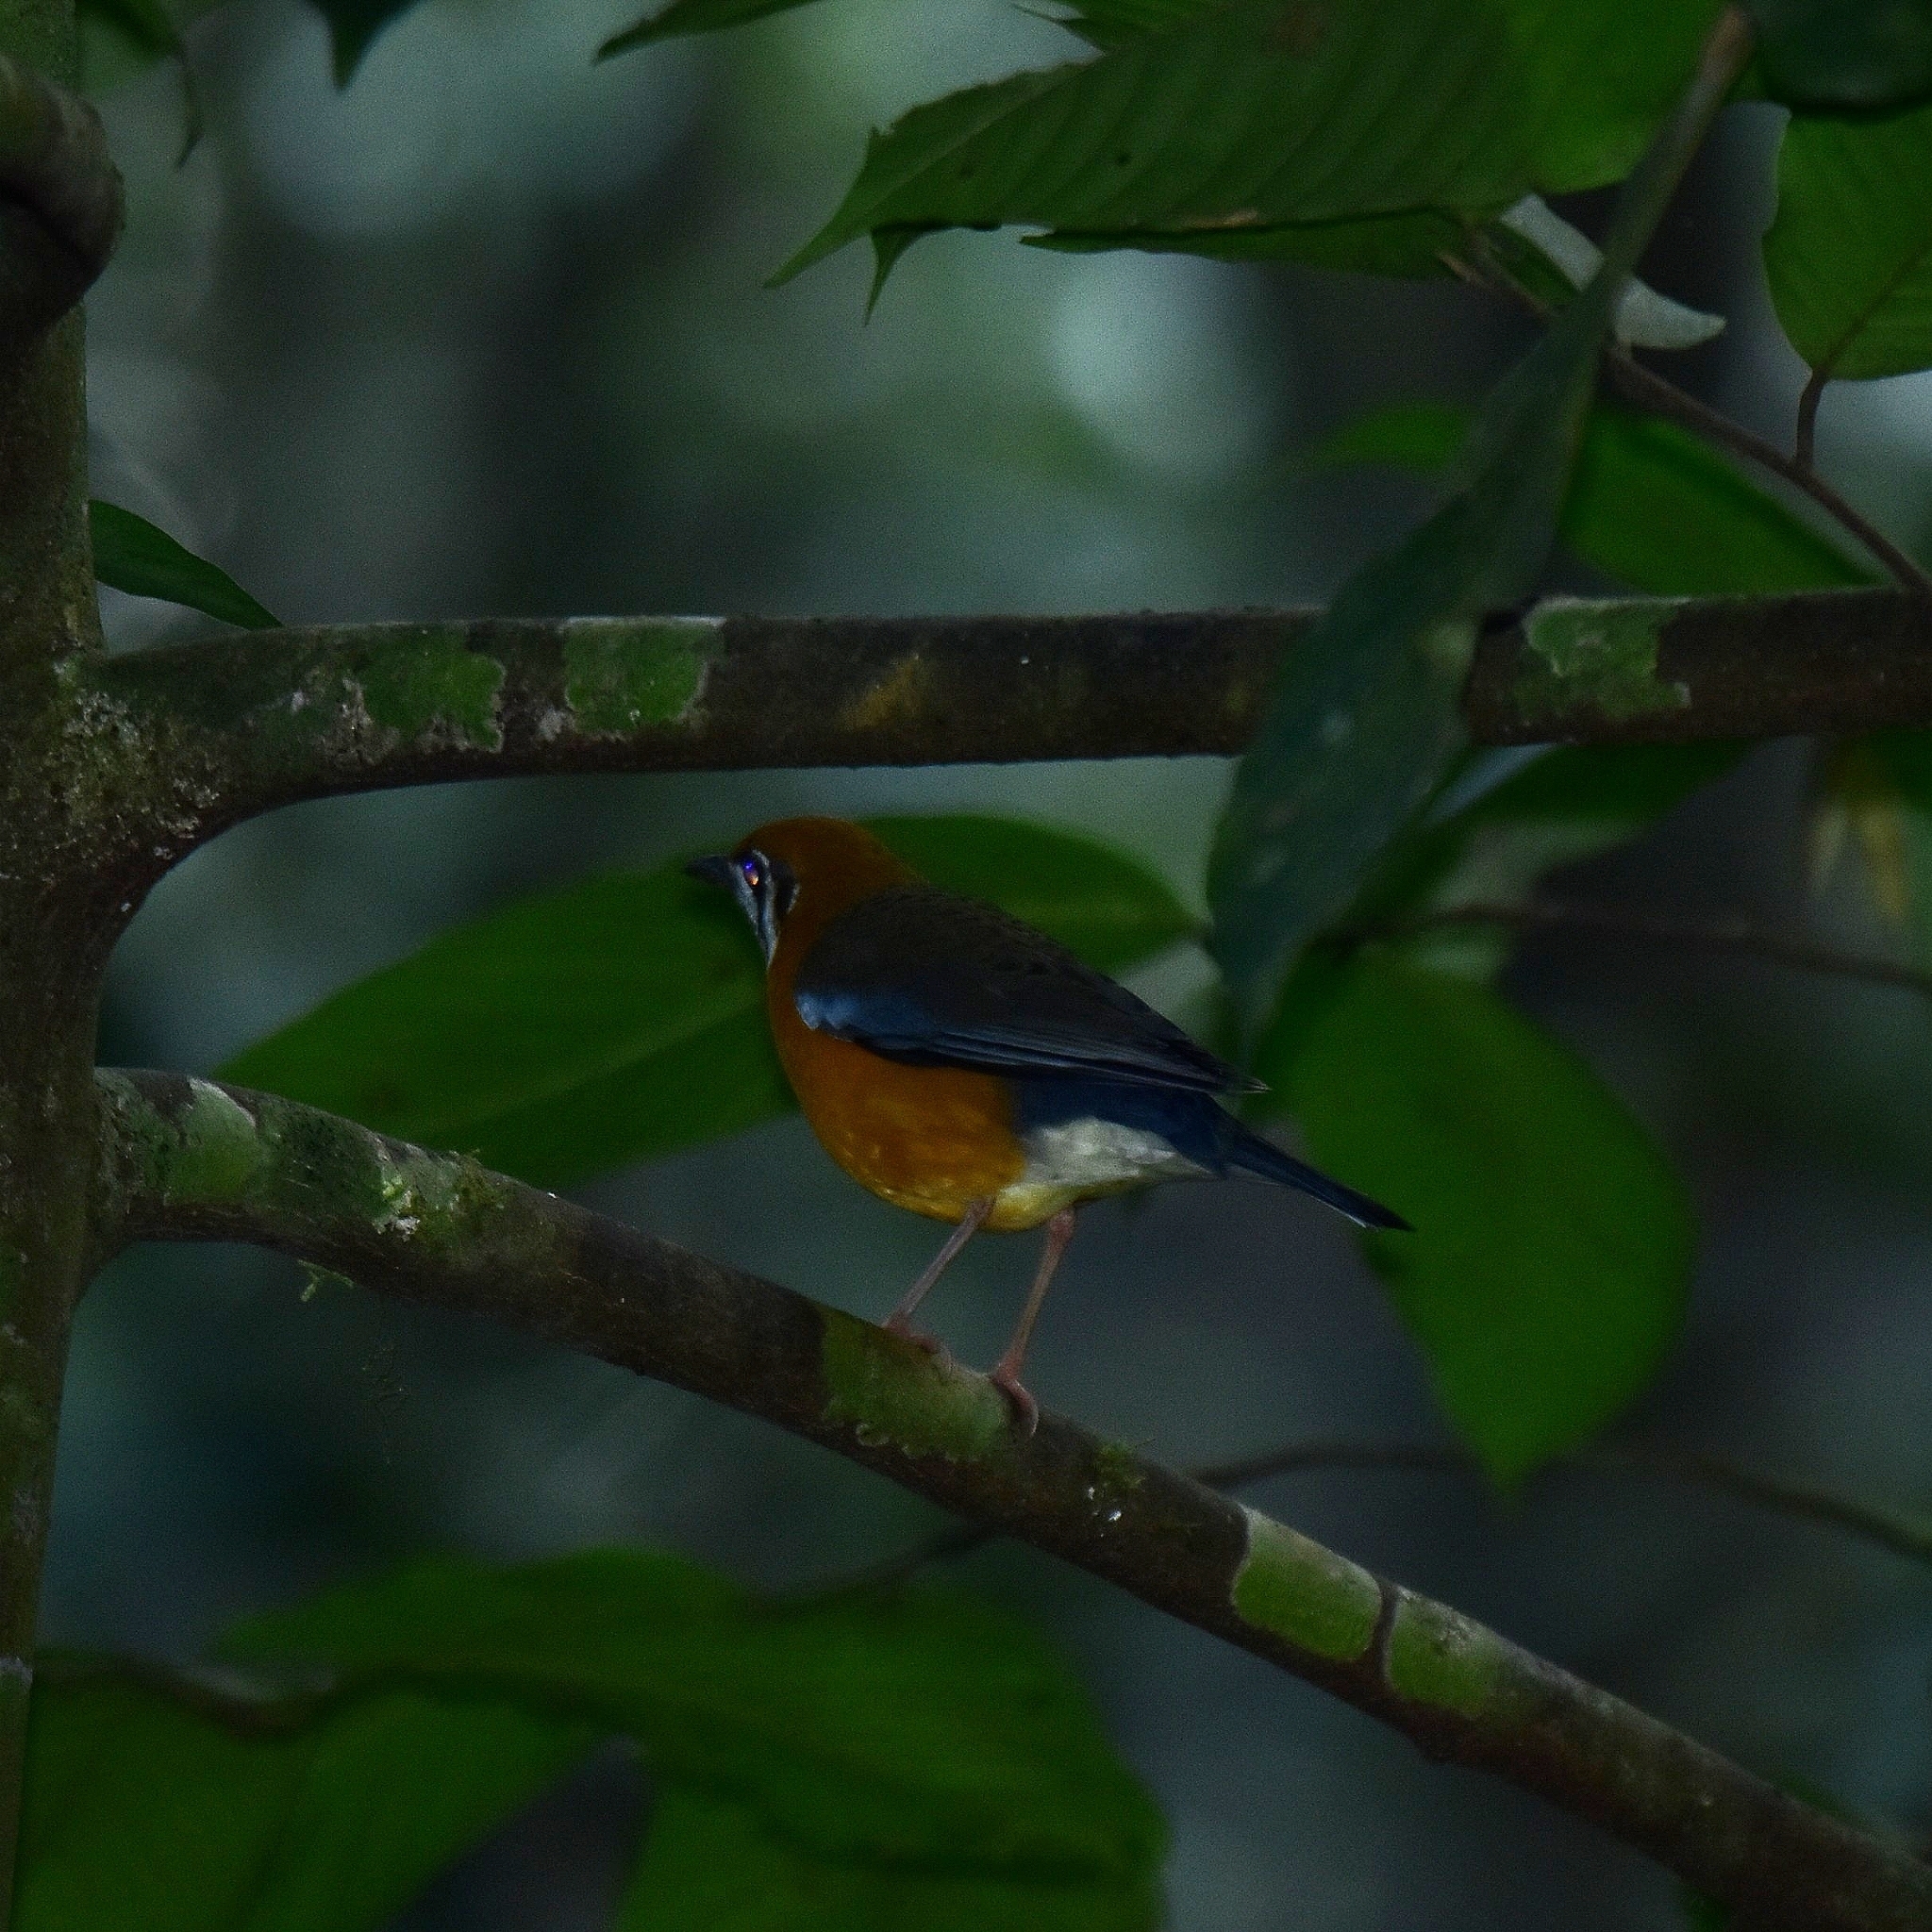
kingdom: Animalia
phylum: Chordata
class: Aves
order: Passeriformes
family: Turdidae
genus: Geokichla
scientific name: Geokichla citrina
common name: Orange-headed thrush
